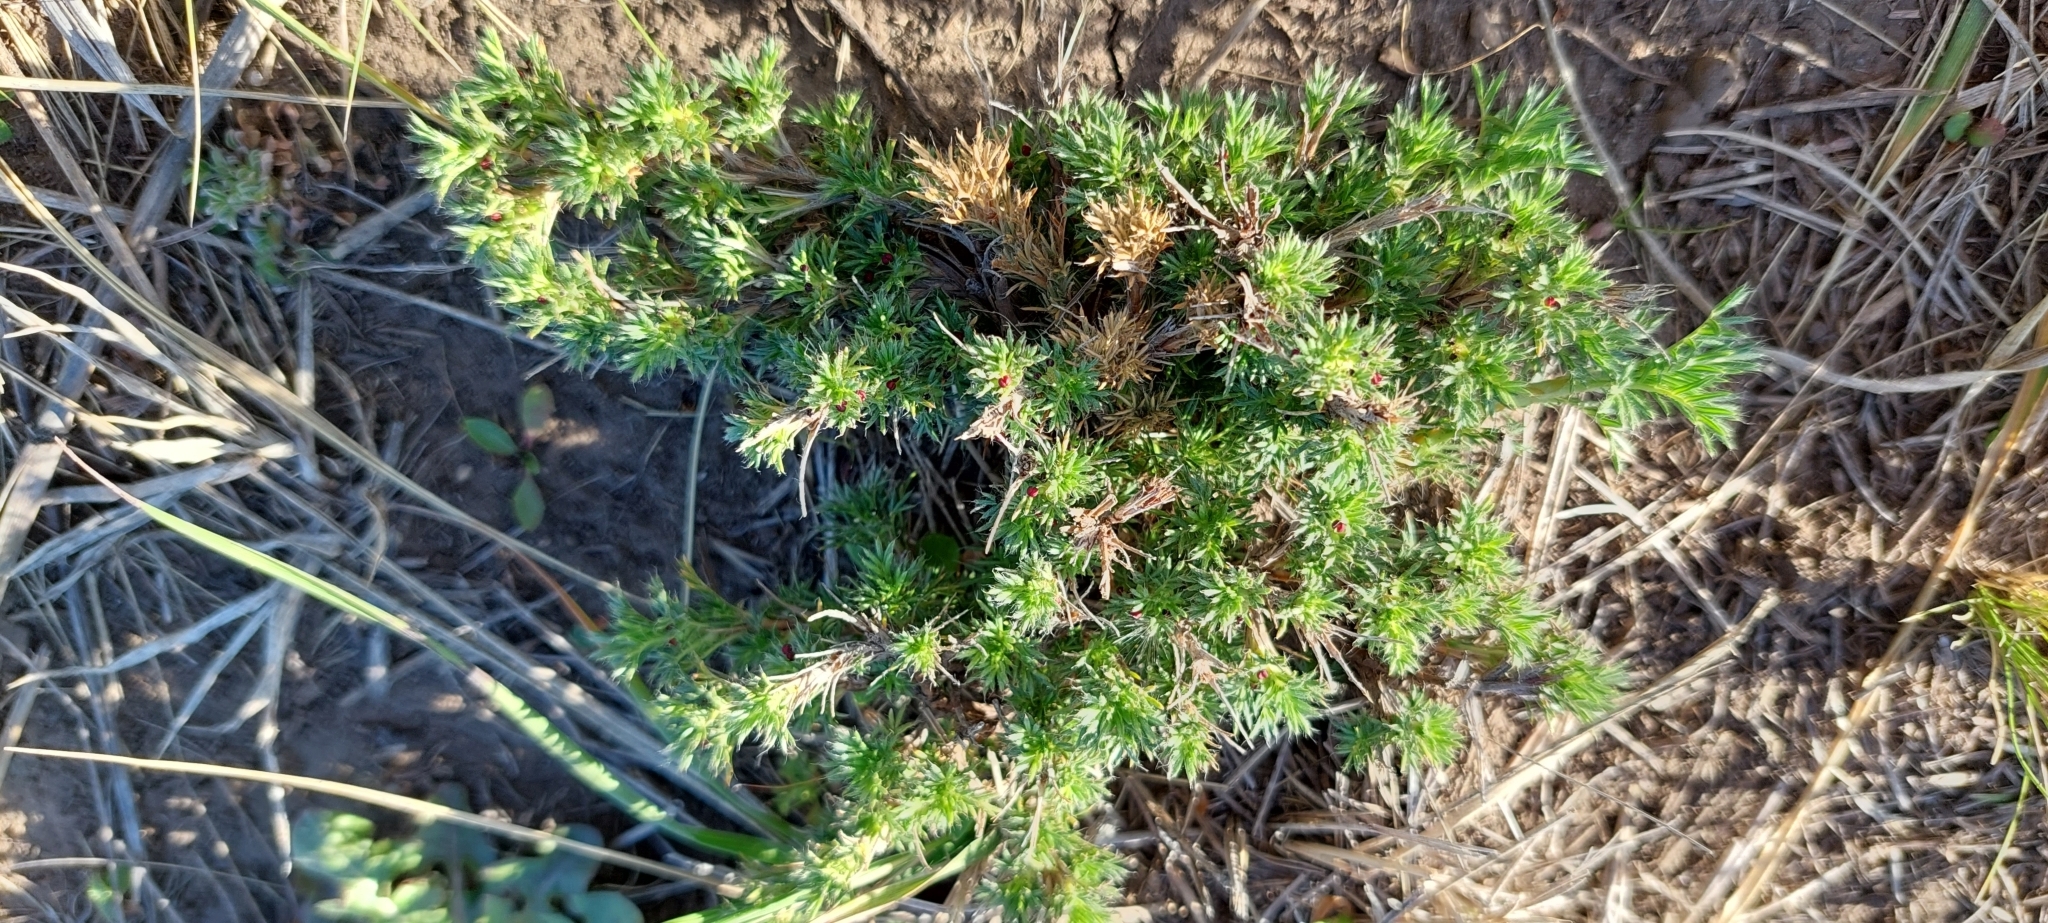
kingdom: Plantae
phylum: Tracheophyta
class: Magnoliopsida
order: Rosales
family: Rosaceae
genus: Margyricarpus
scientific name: Margyricarpus pinnatus
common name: Pearlfruit
